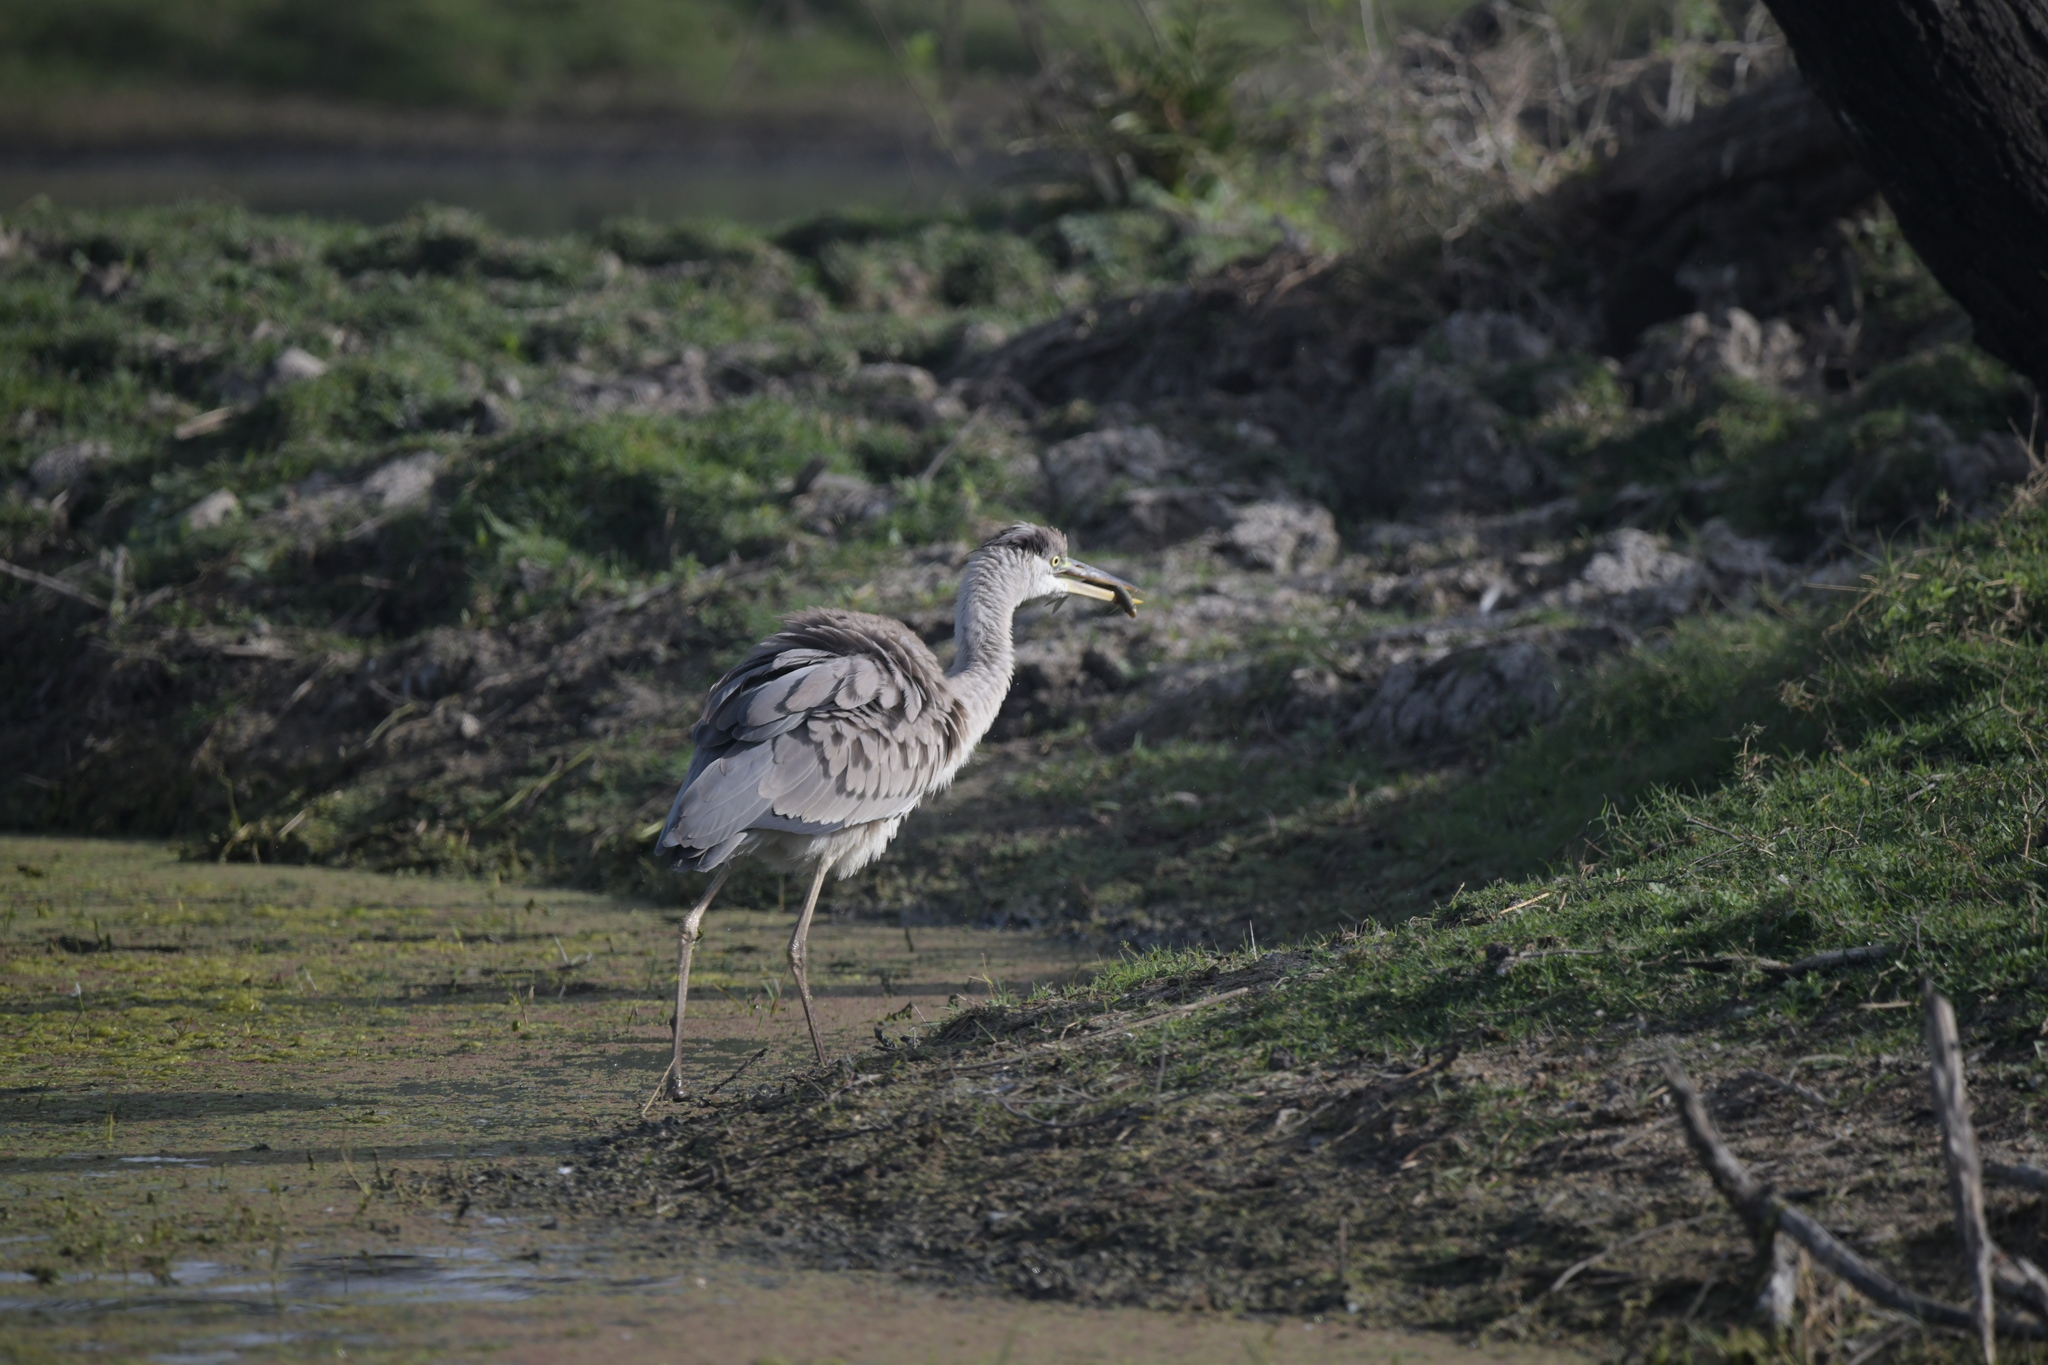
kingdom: Animalia
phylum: Chordata
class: Aves
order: Pelecaniformes
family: Ardeidae
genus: Ardea
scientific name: Ardea cinerea
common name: Grey heron
